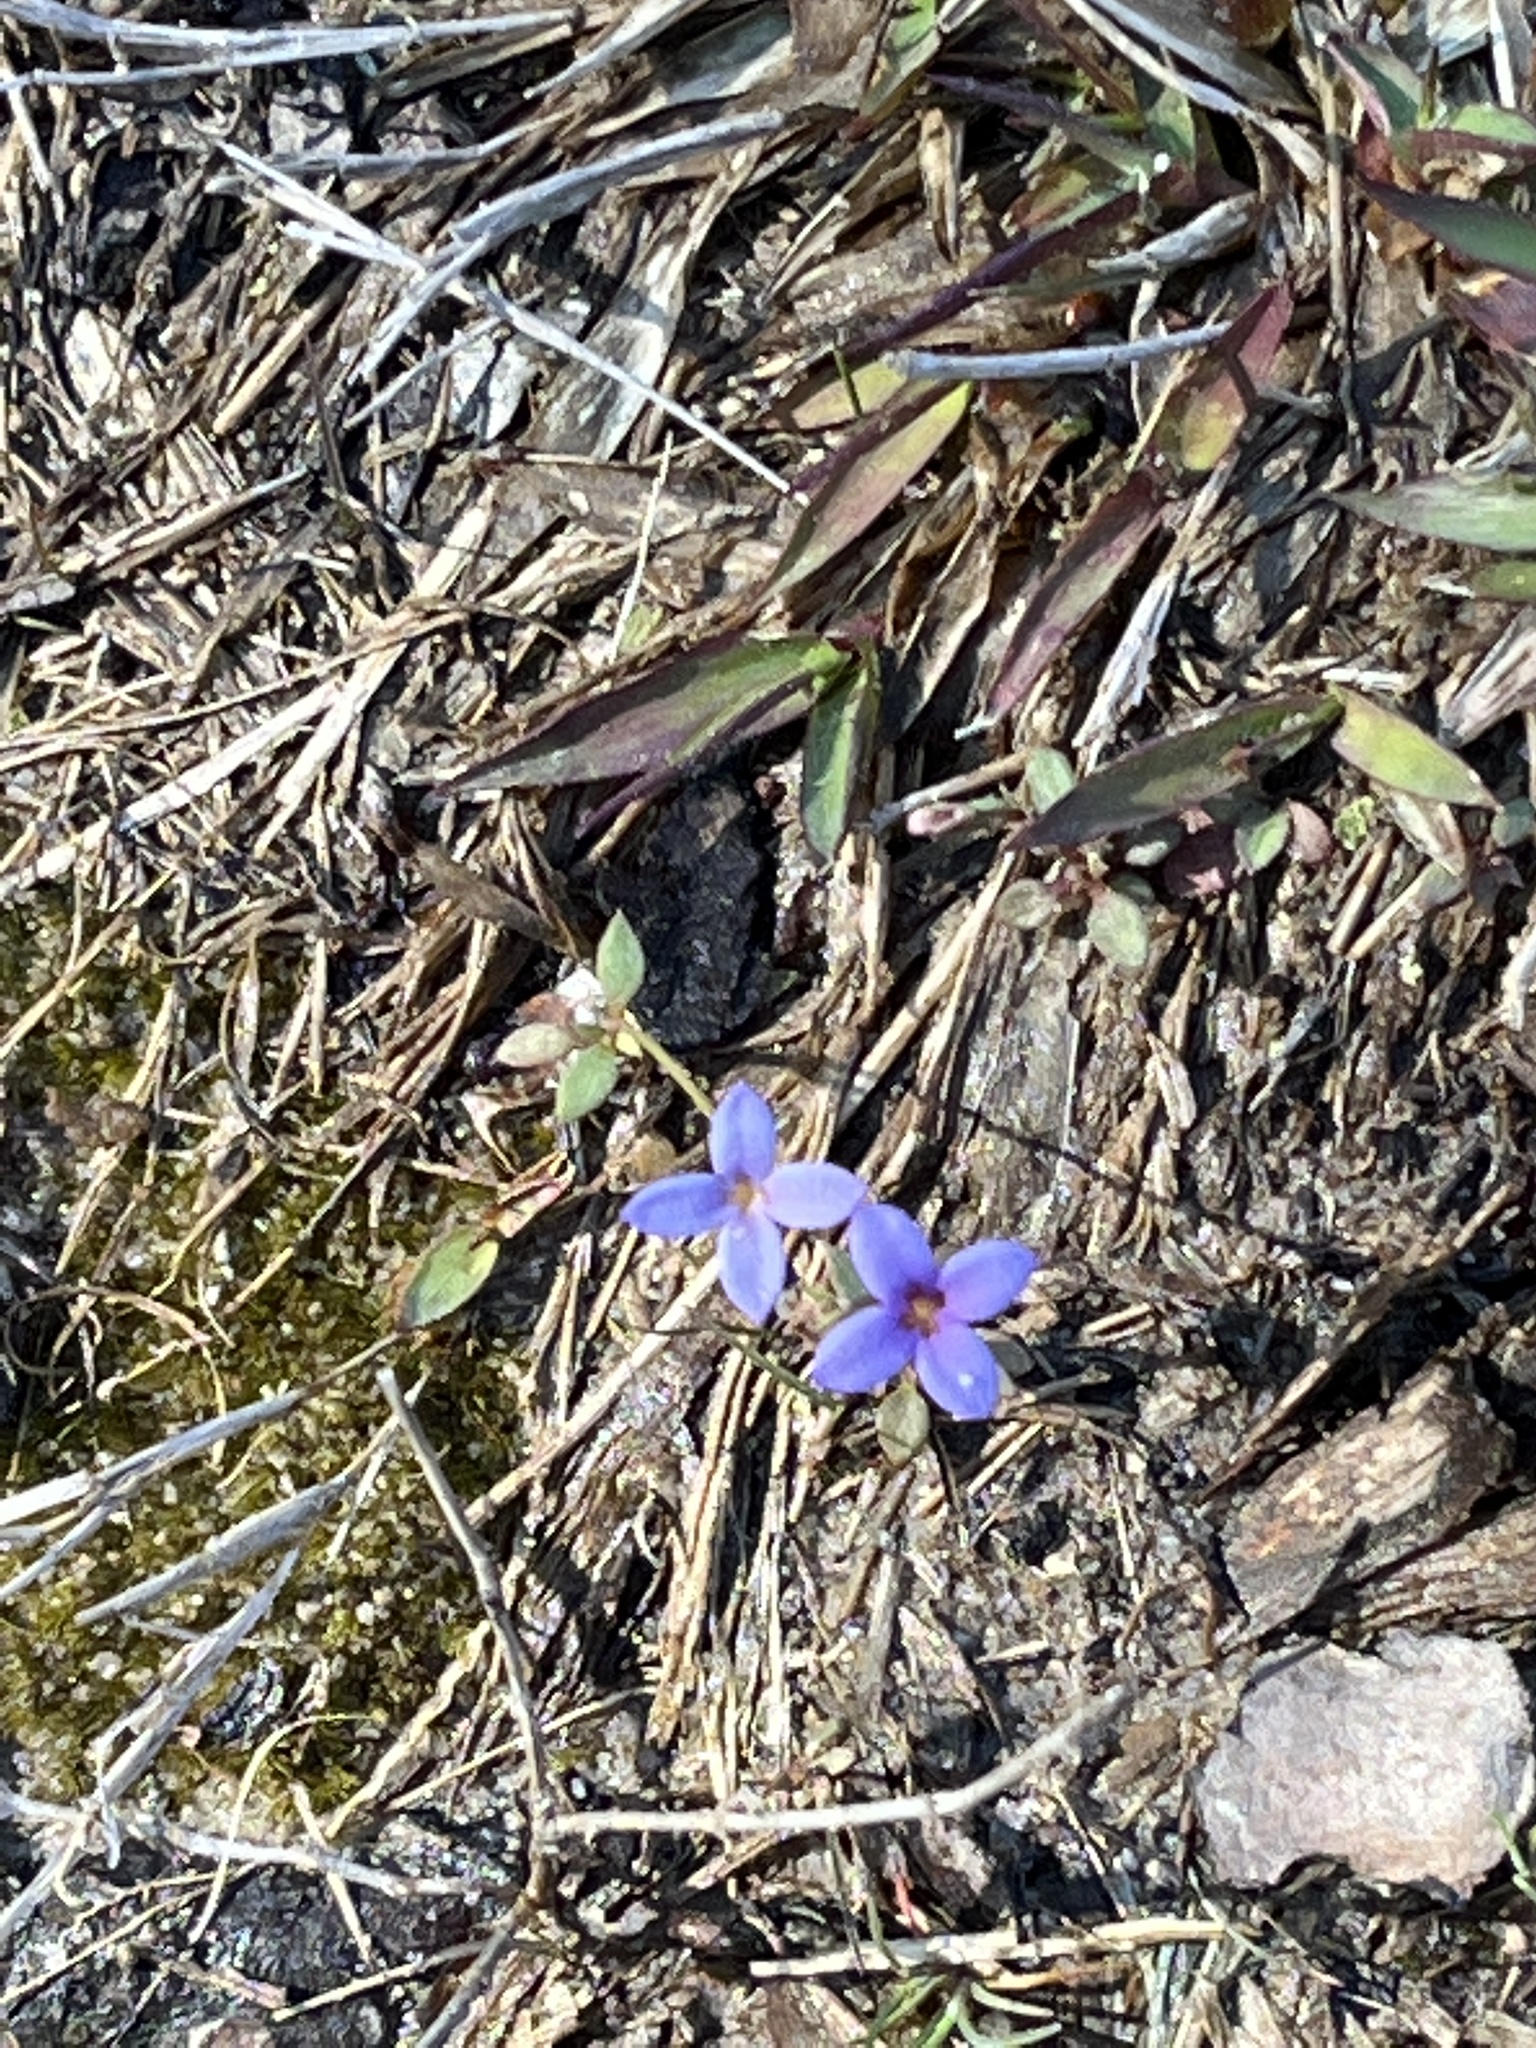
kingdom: Plantae
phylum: Tracheophyta
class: Magnoliopsida
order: Gentianales
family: Rubiaceae
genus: Houstonia
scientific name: Houstonia pusilla
